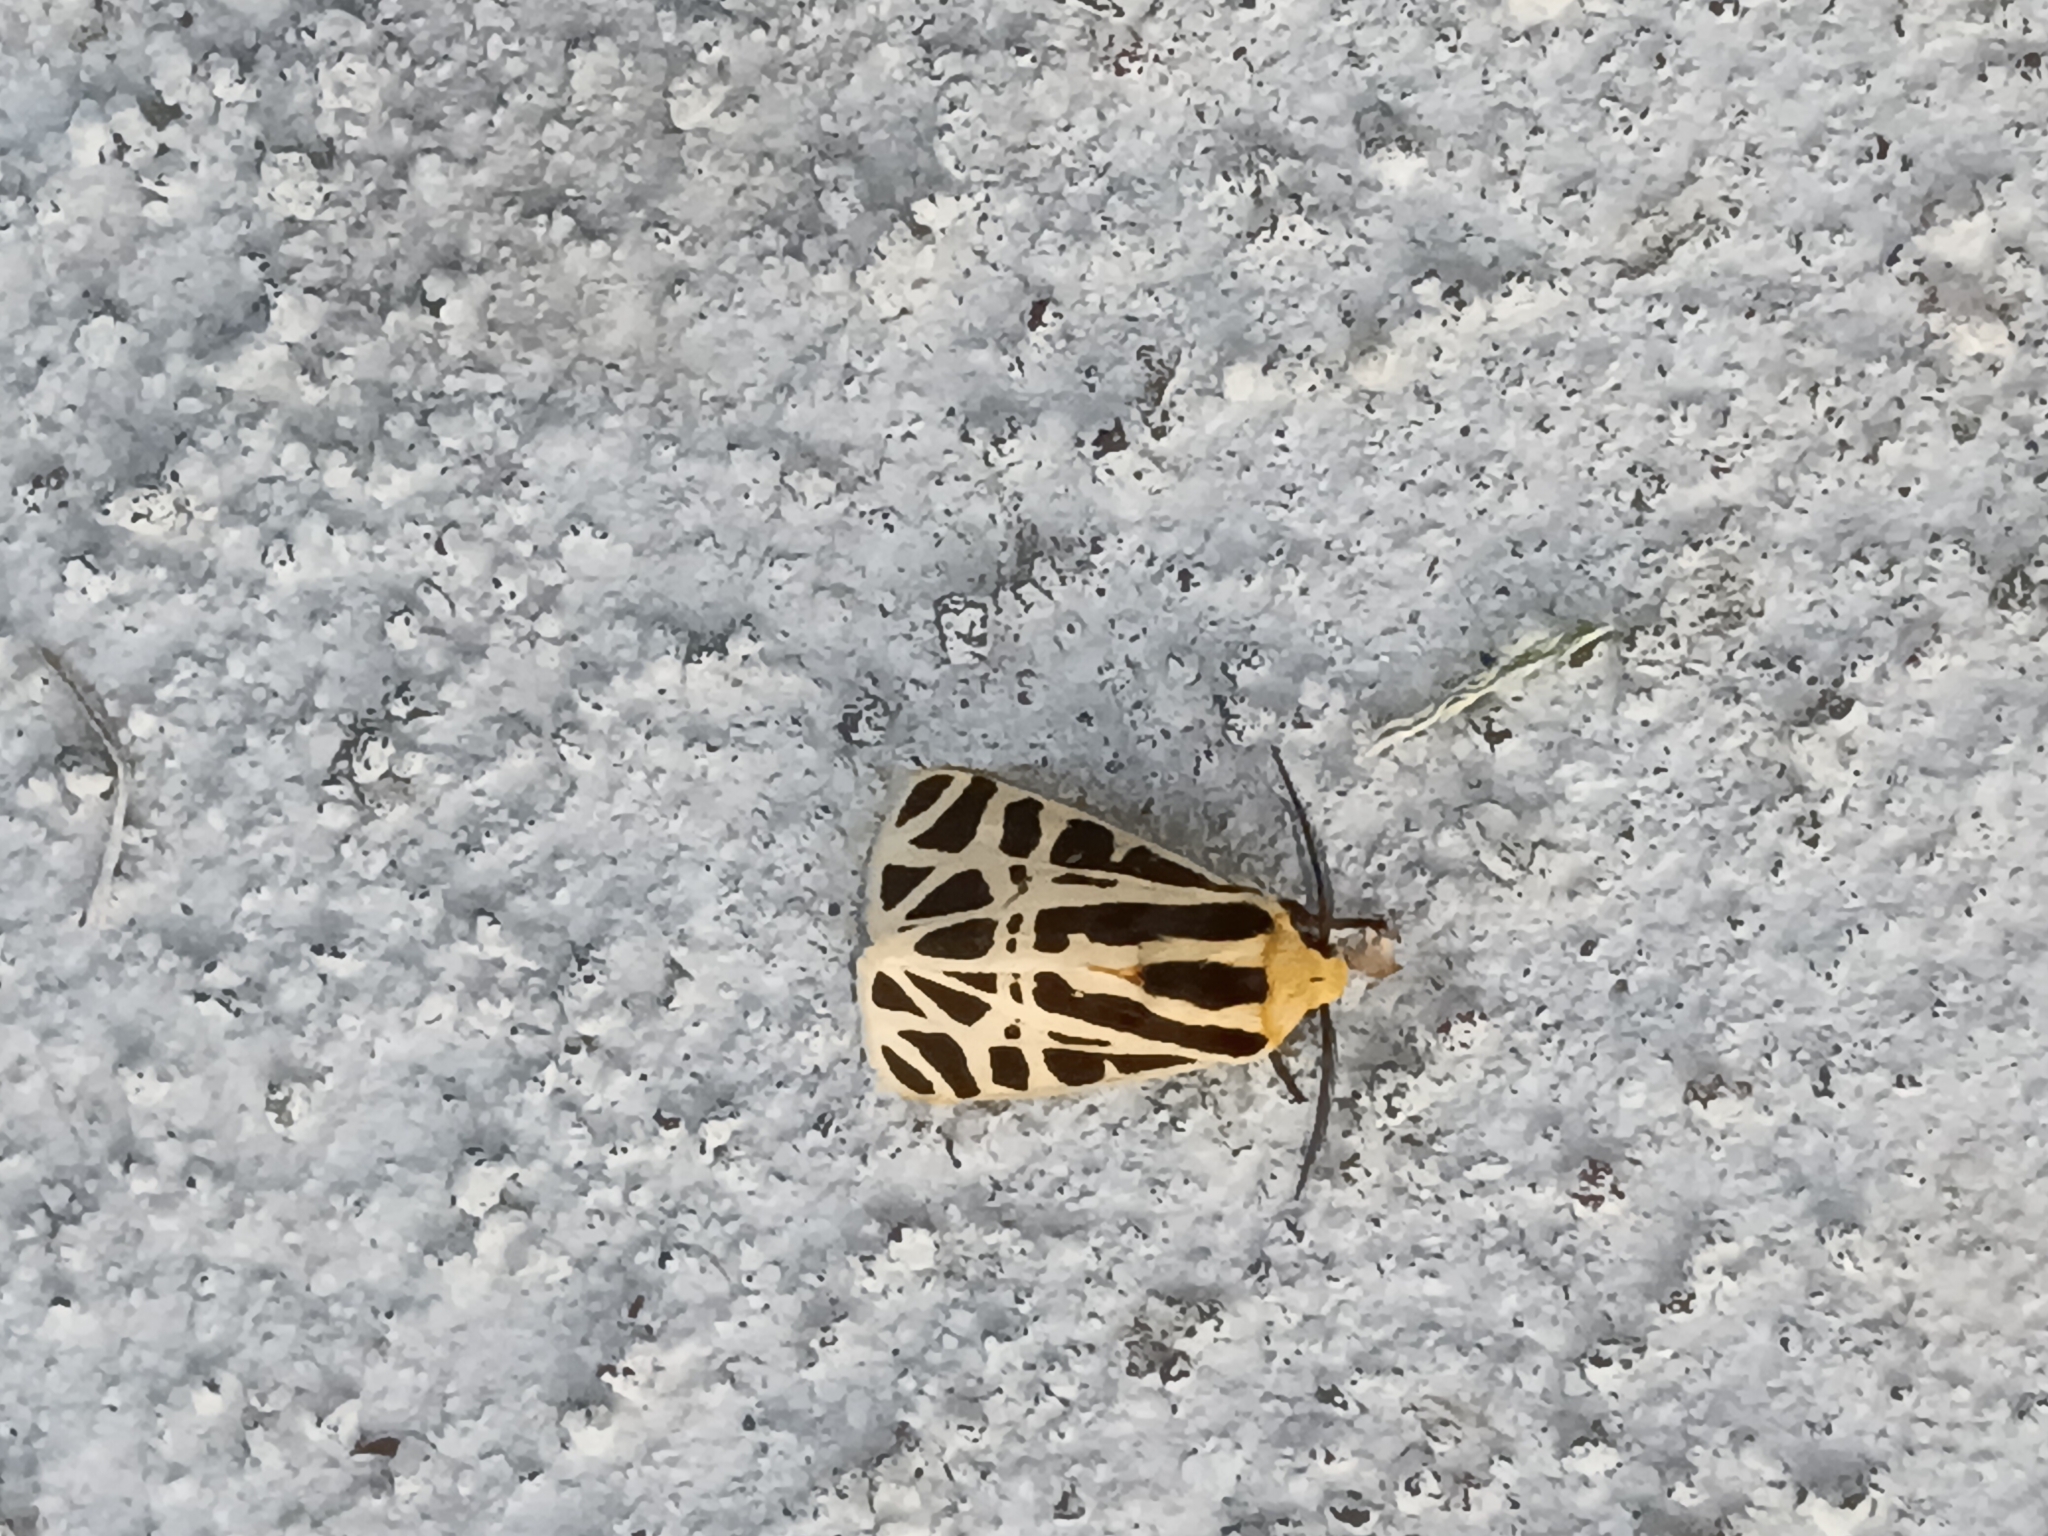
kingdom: Animalia
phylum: Arthropoda
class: Insecta
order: Lepidoptera
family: Erebidae
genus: Apantesis
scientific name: Apantesis
